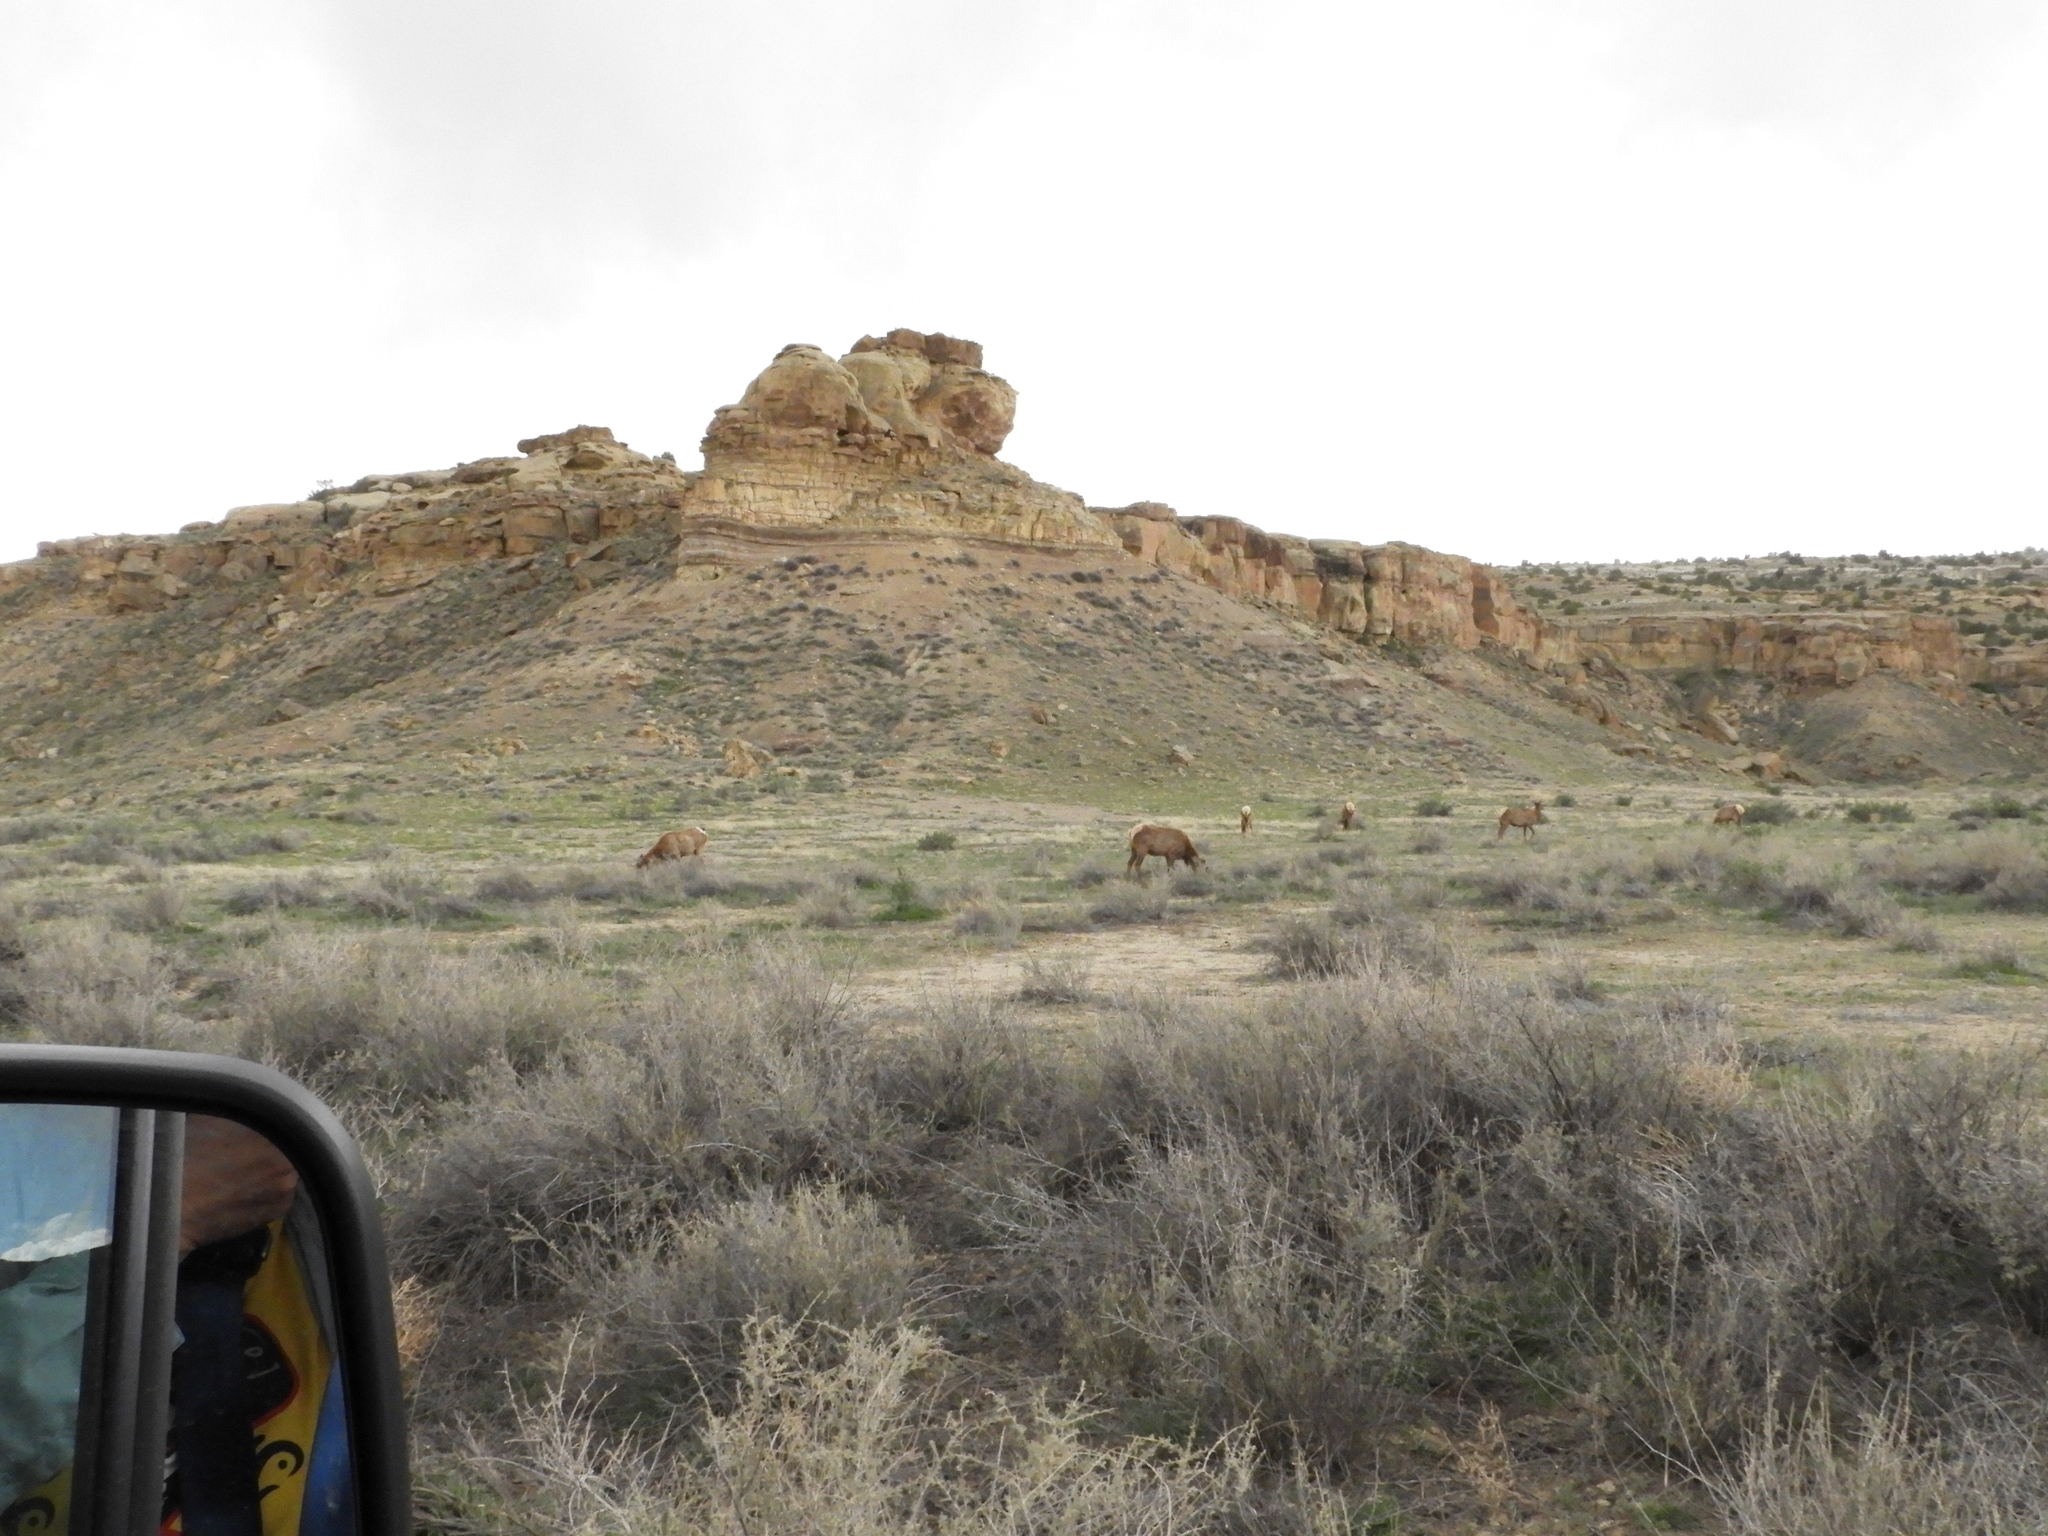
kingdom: Animalia
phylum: Chordata
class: Mammalia
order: Artiodactyla
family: Cervidae
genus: Cervus
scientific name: Cervus elaphus
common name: Red deer
